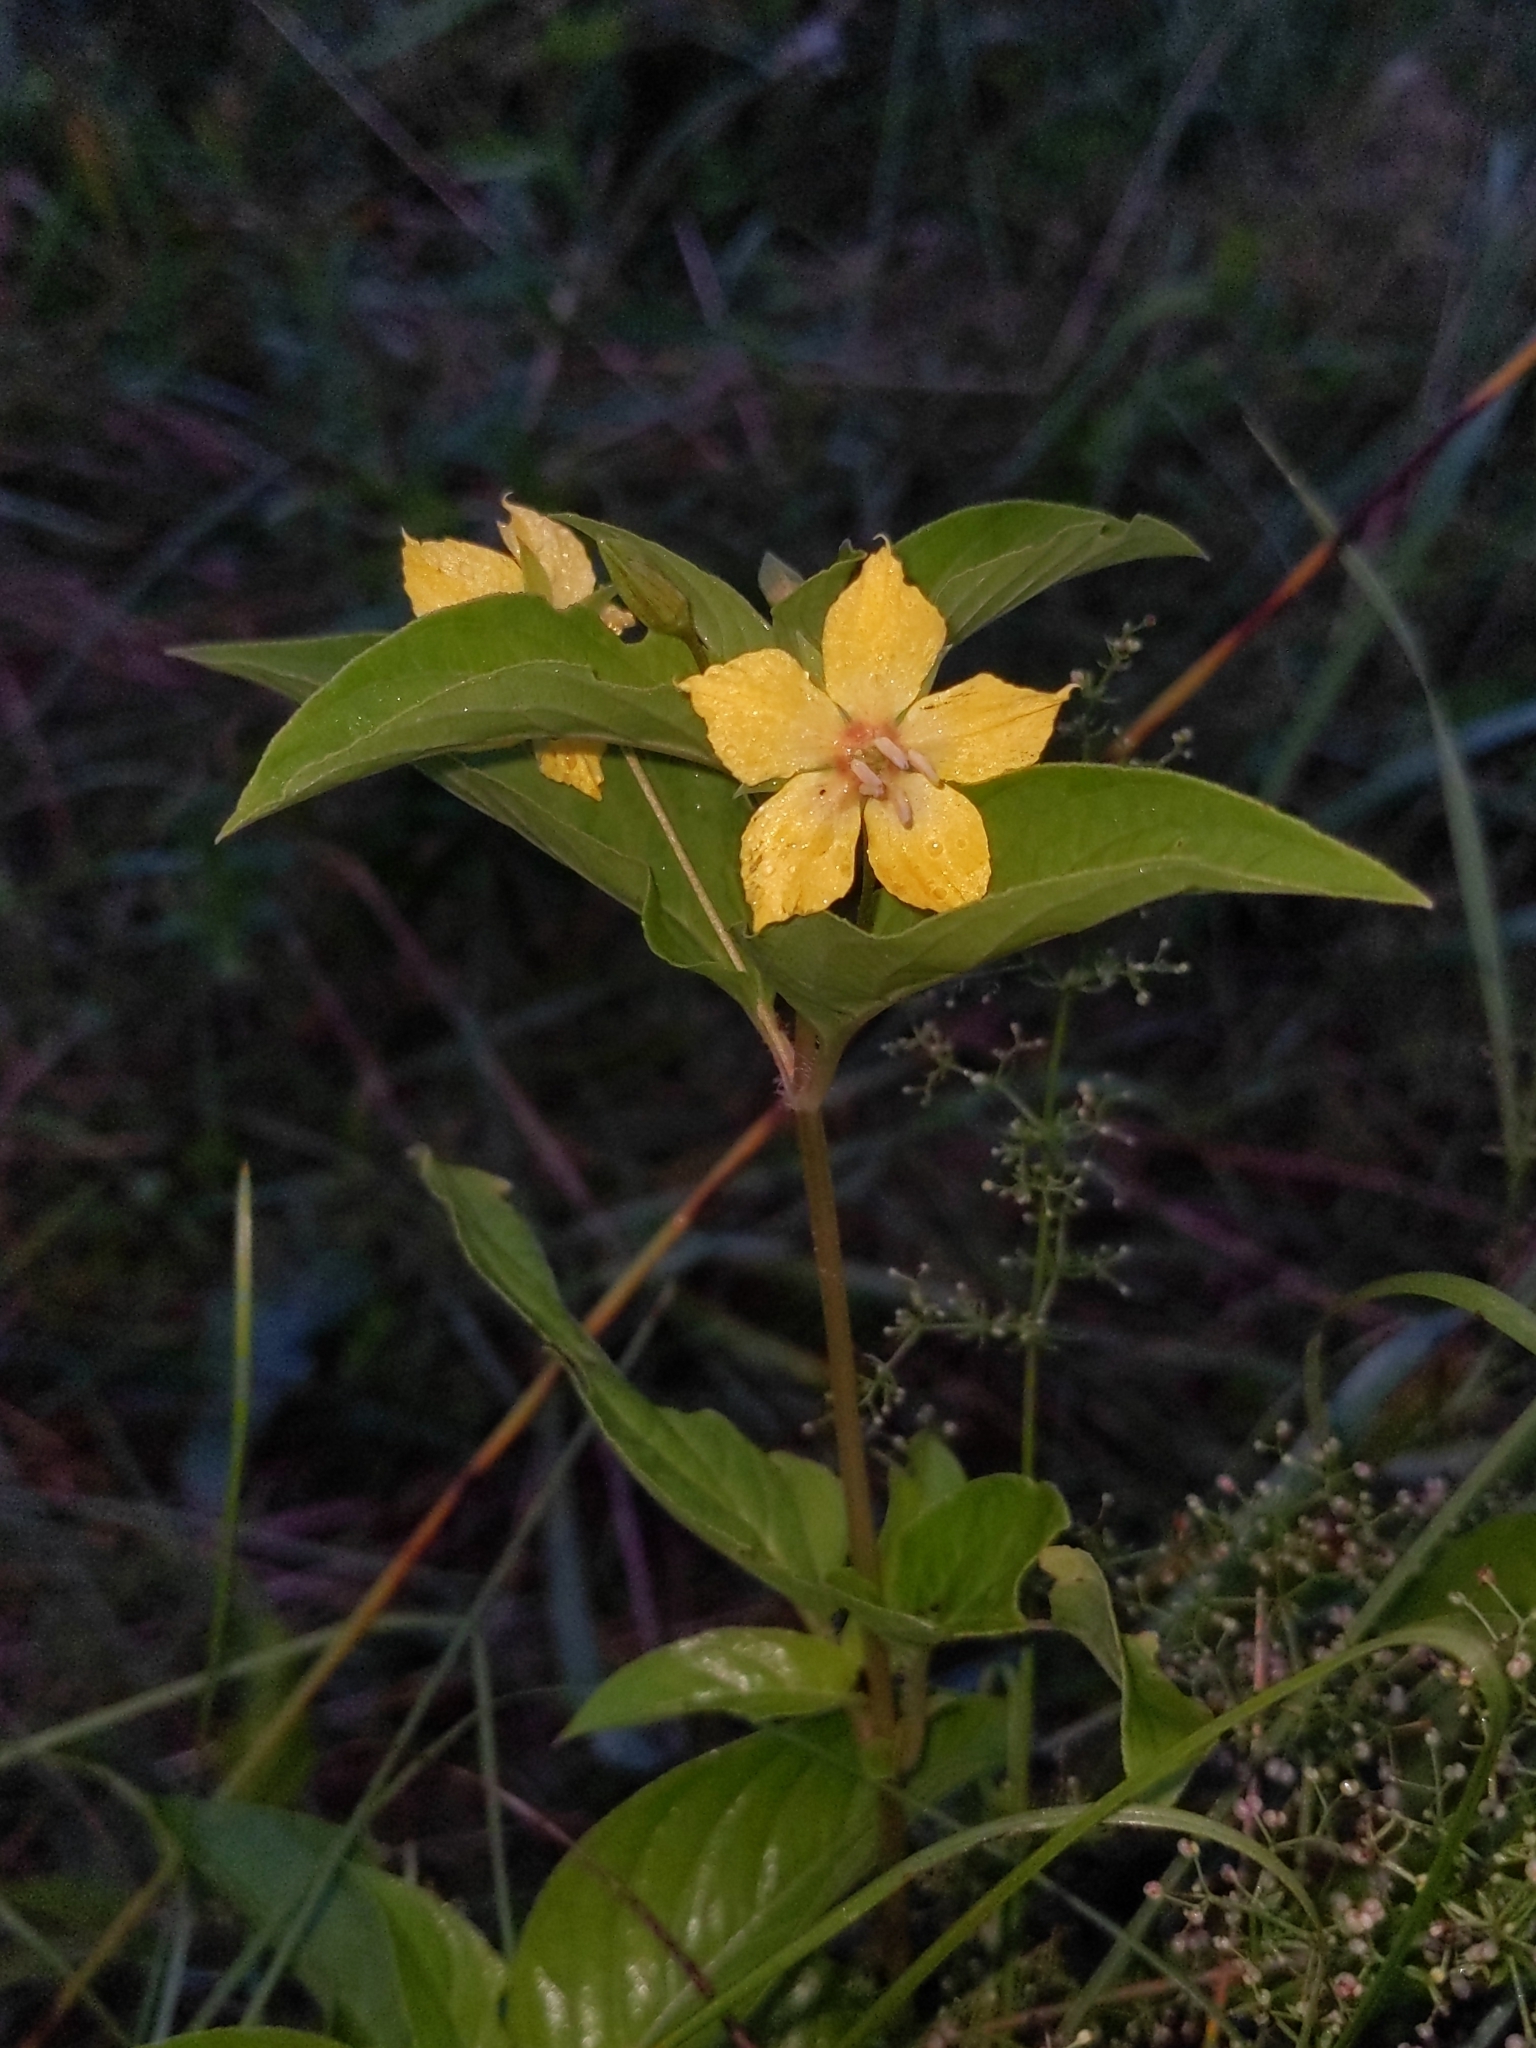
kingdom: Plantae
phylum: Tracheophyta
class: Magnoliopsida
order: Ericales
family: Primulaceae
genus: Lysimachia
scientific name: Lysimachia ciliata
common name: Fringed loosestrife
